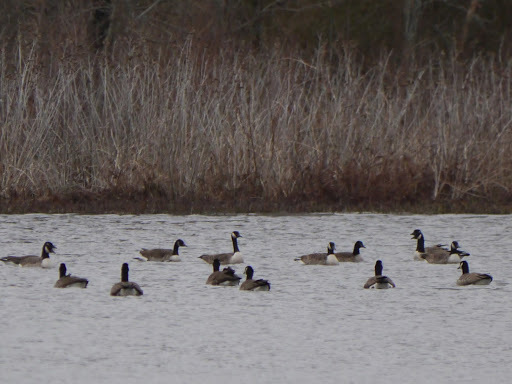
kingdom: Animalia
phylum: Chordata
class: Aves
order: Anseriformes
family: Anatidae
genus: Branta
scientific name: Branta canadensis
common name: Canada goose
